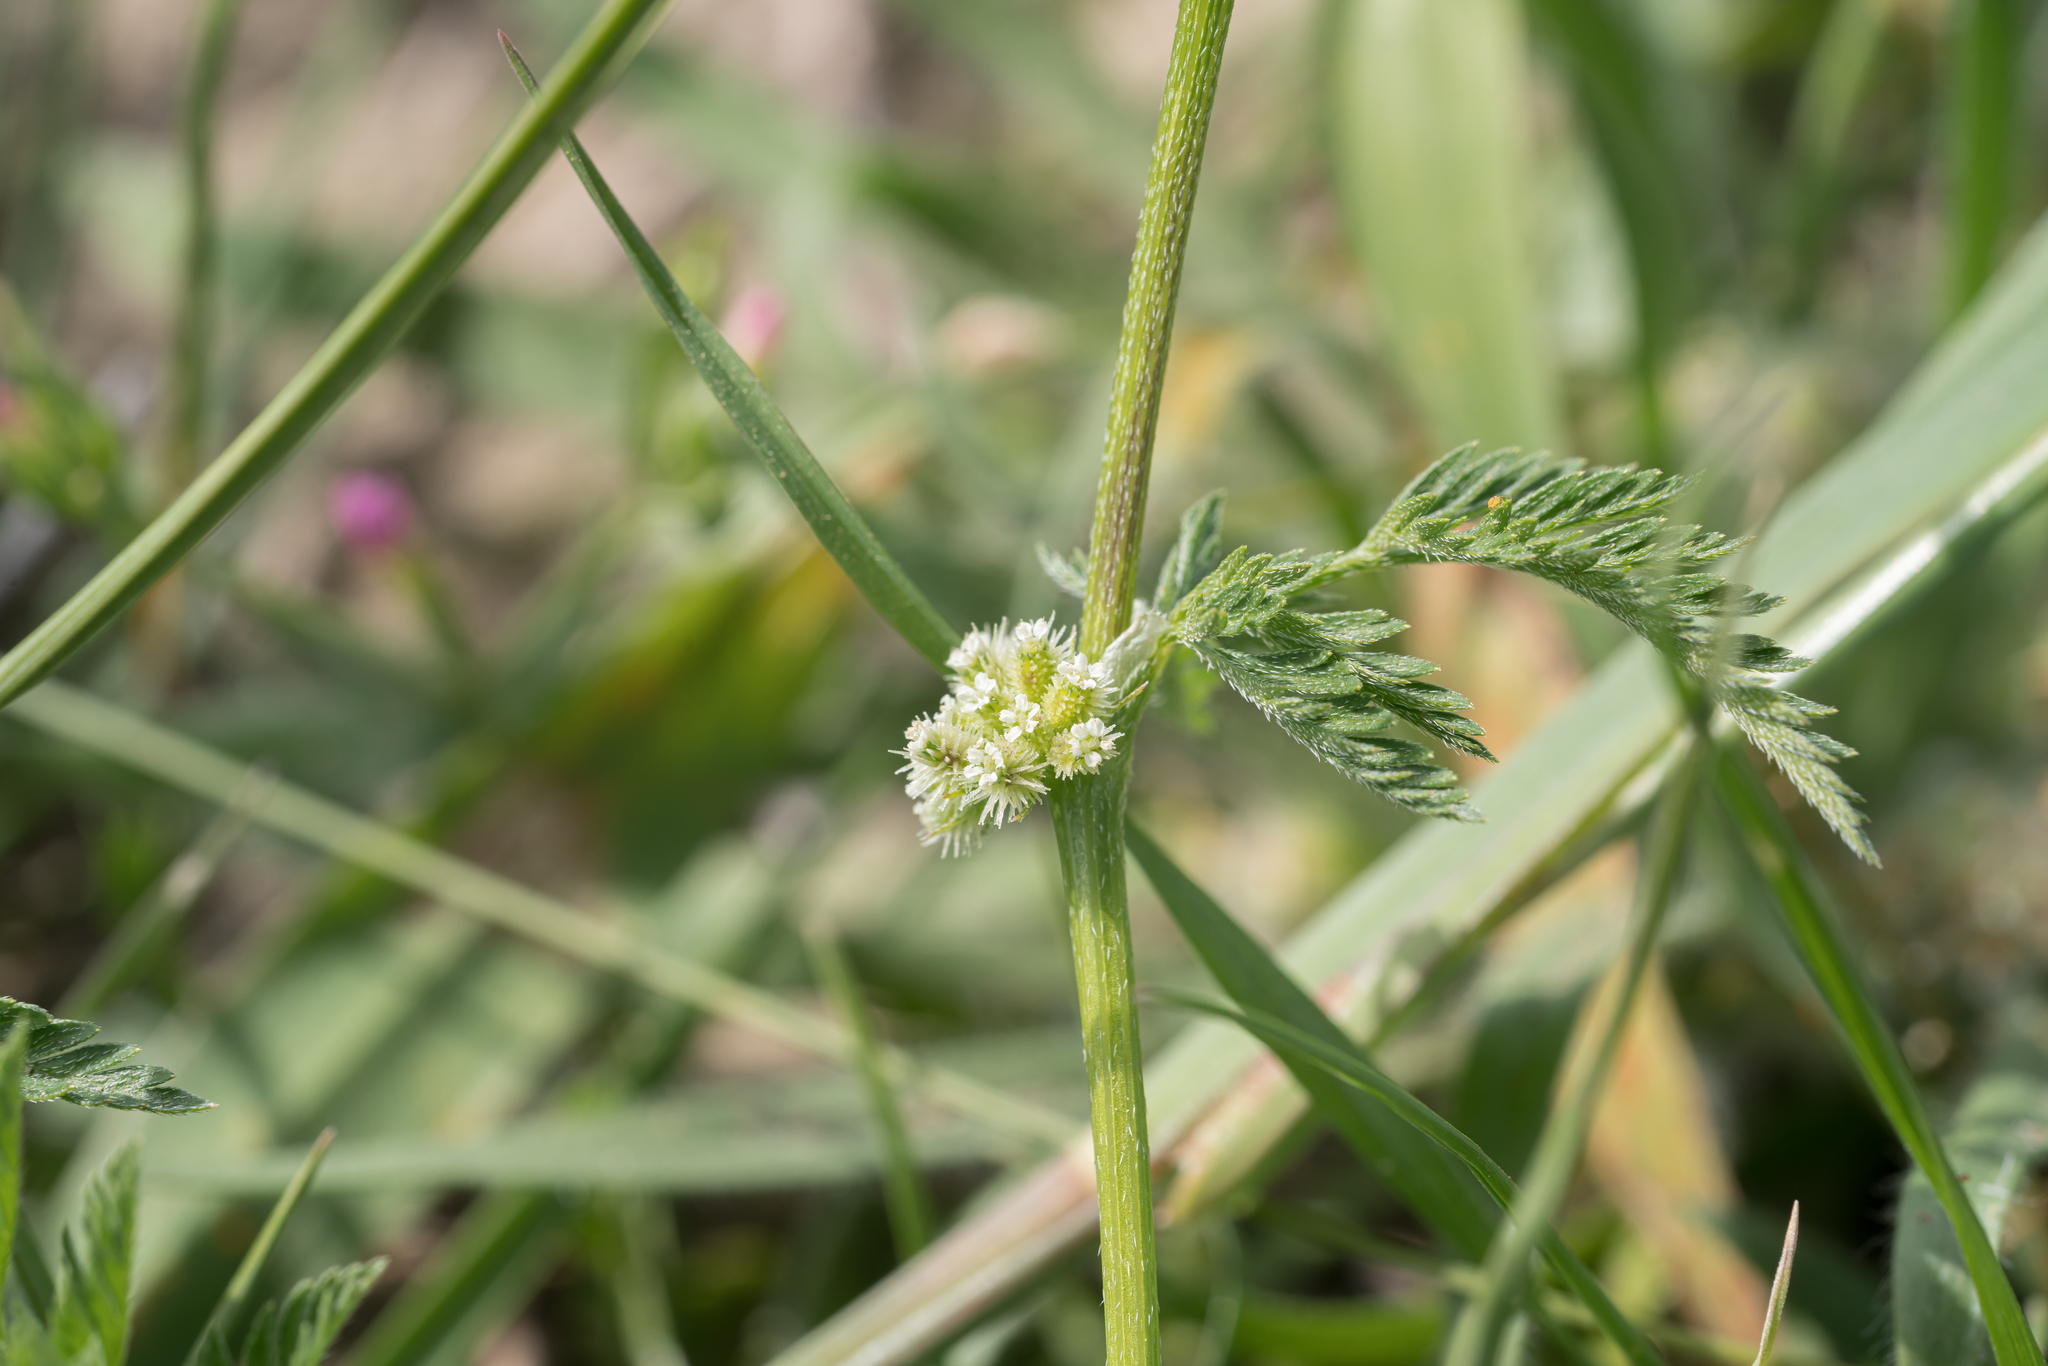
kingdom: Plantae
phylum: Tracheophyta
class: Magnoliopsida
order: Apiales
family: Apiaceae
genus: Torilis
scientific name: Torilis nodosa
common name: Knotted hedge-parsley
